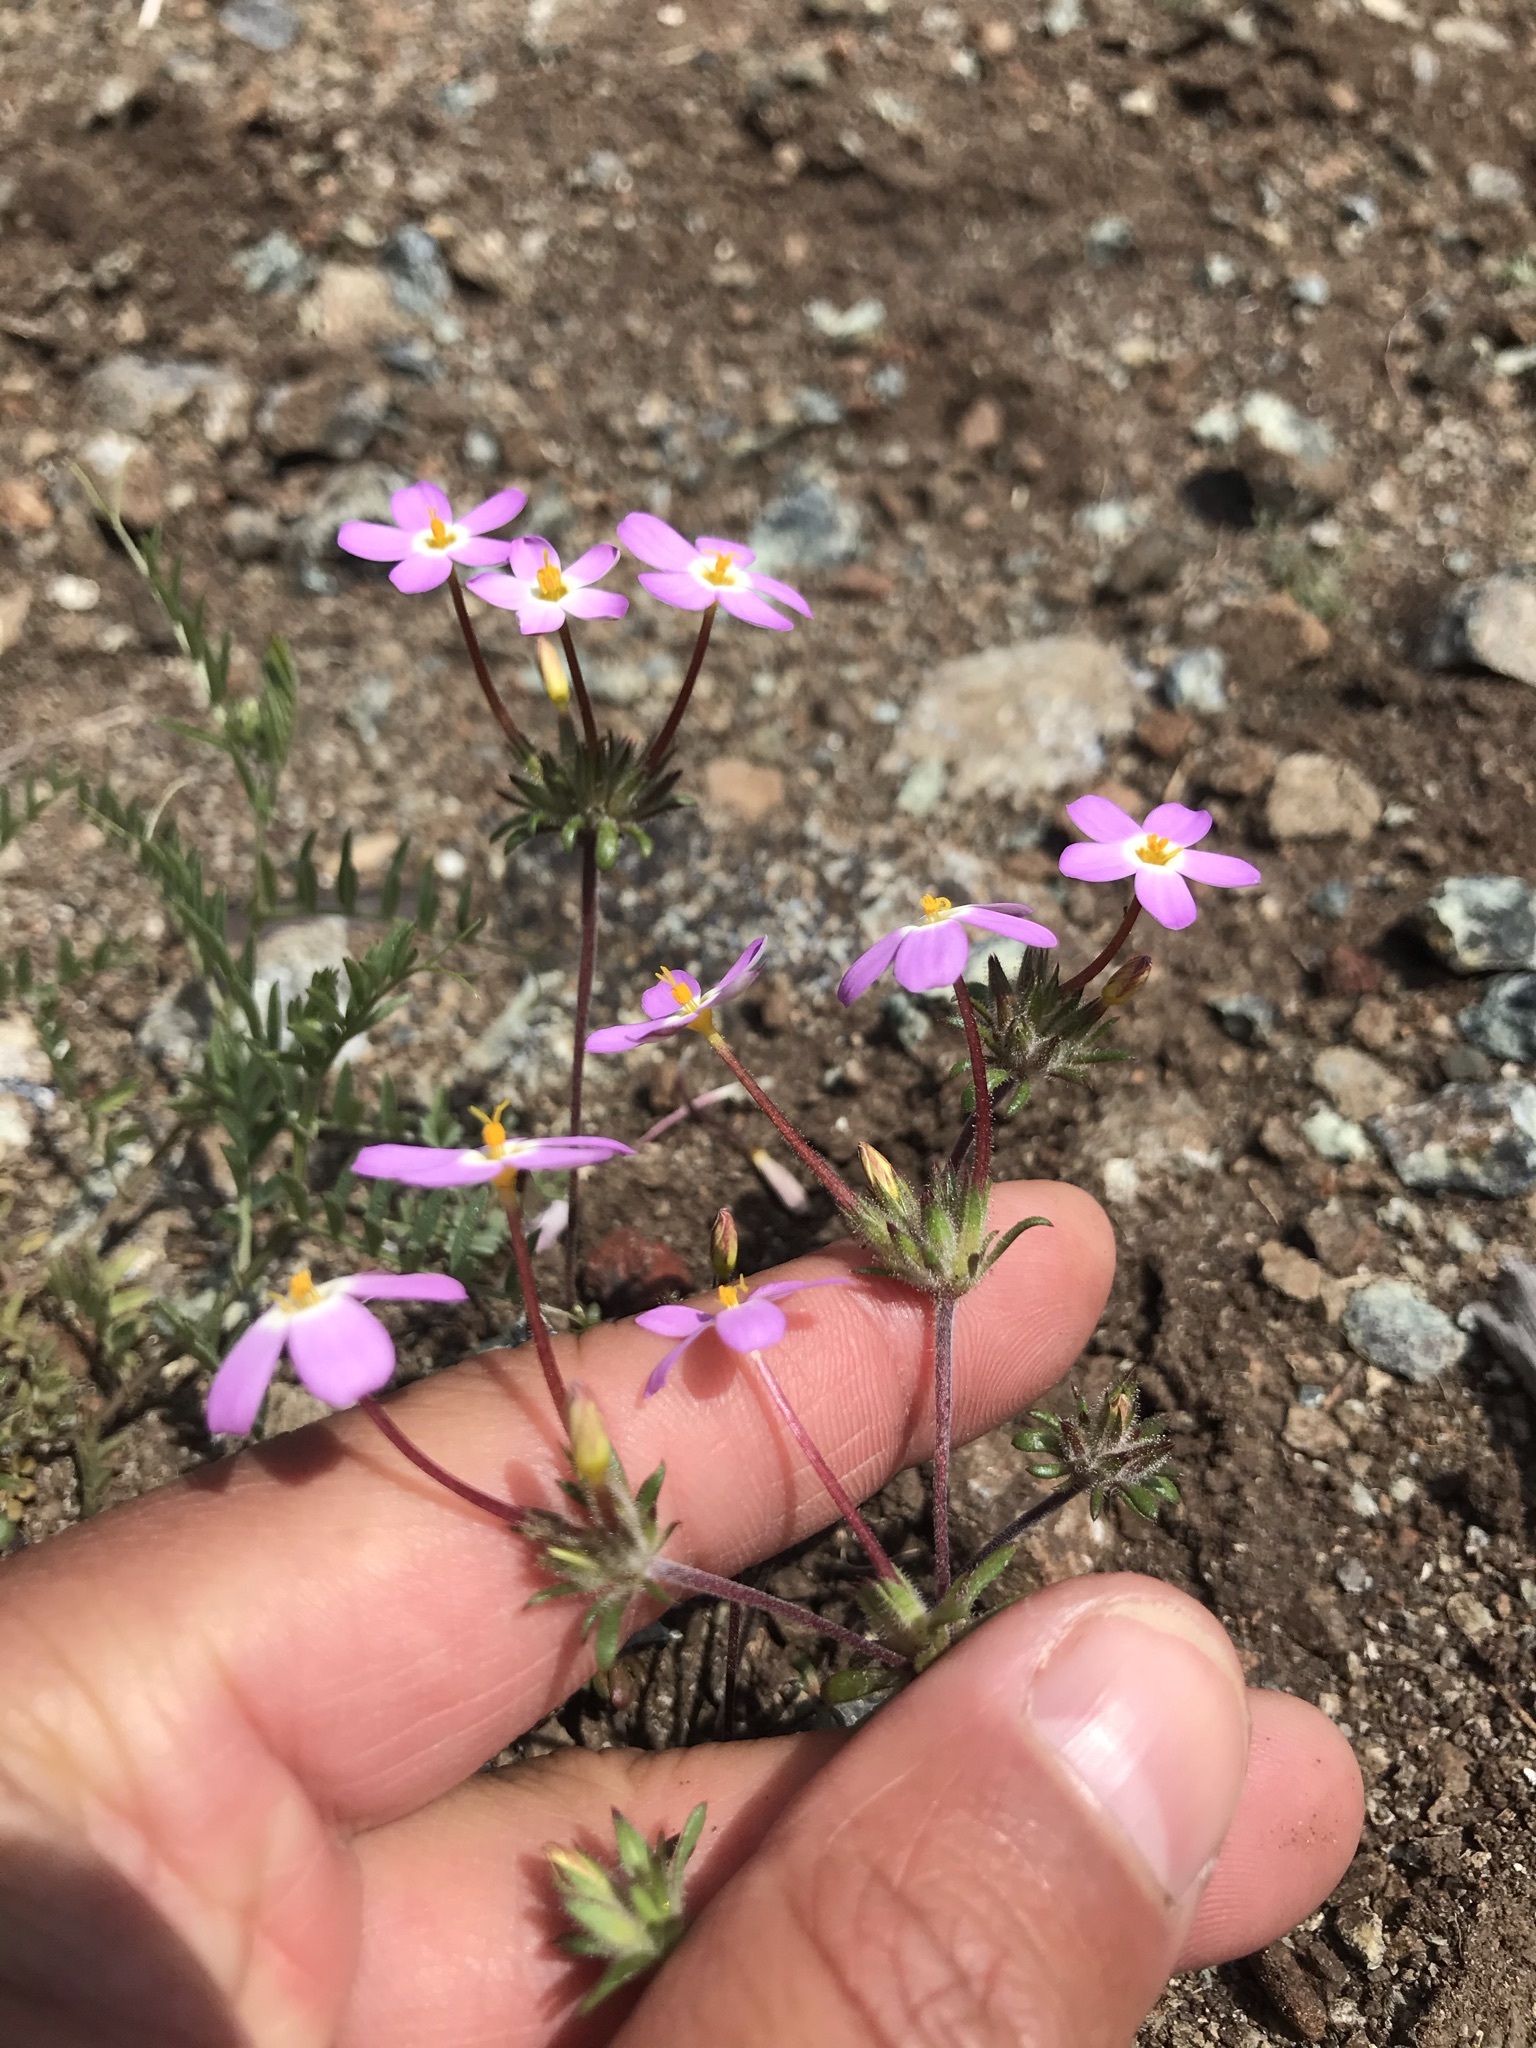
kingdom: Plantae
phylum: Tracheophyta
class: Magnoliopsida
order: Ericales
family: Polemoniaceae
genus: Leptosiphon
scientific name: Leptosiphon parviflorus
